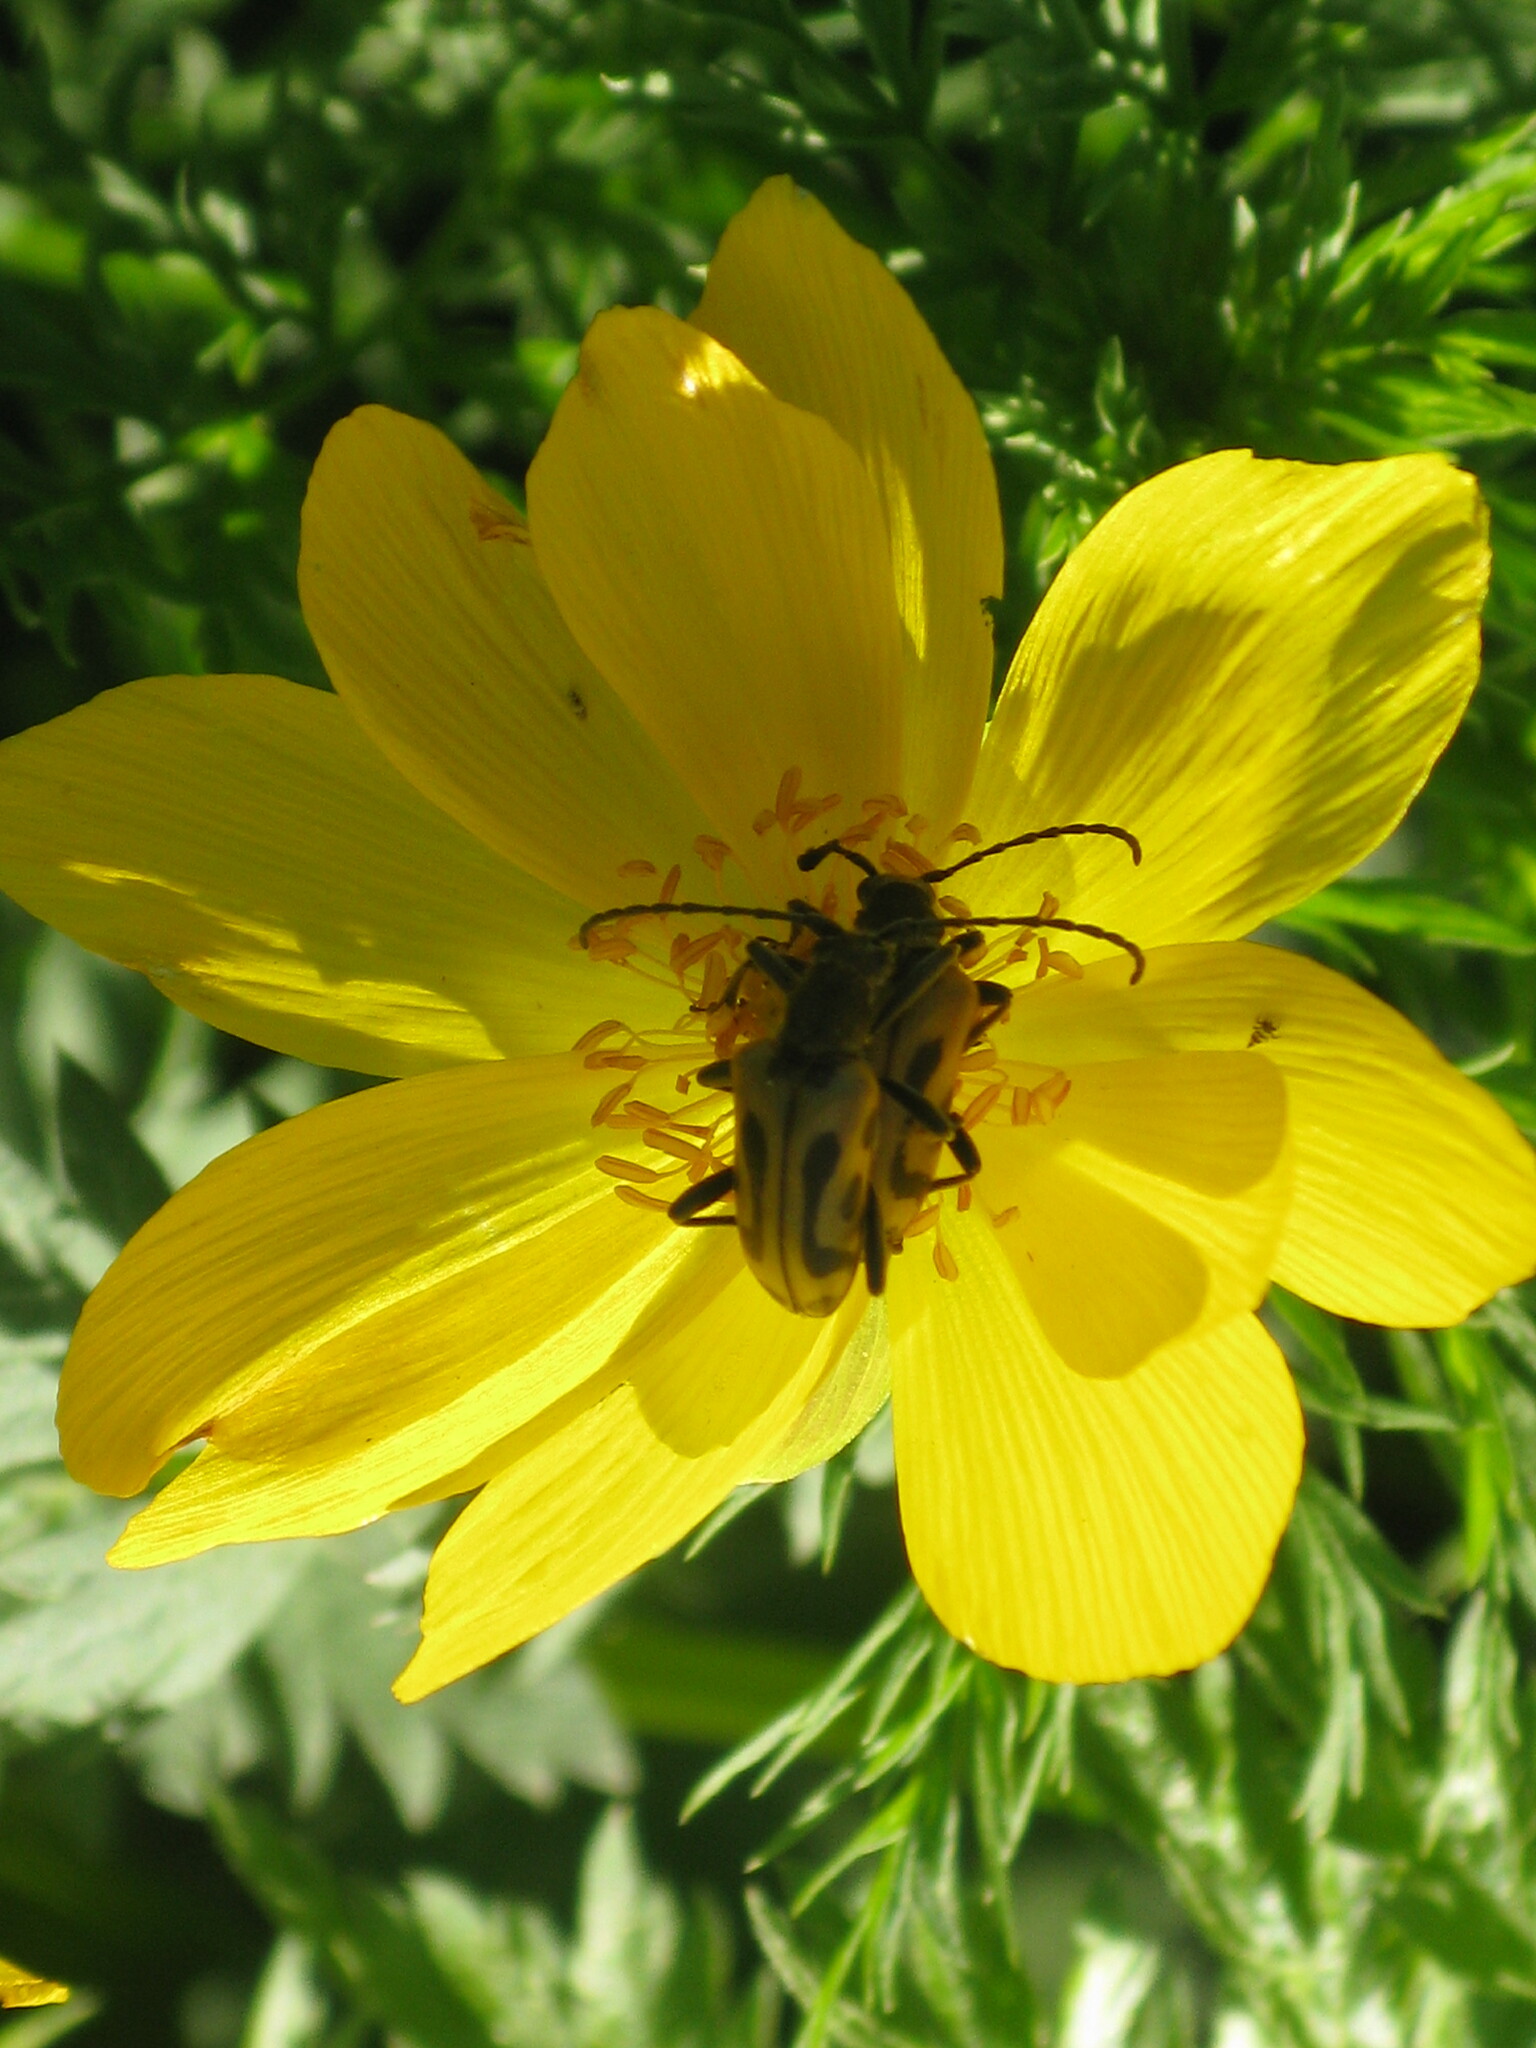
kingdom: Animalia
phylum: Arthropoda
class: Insecta
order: Coleoptera
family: Cerambycidae
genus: Brachyta
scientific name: Brachyta interrogationis
